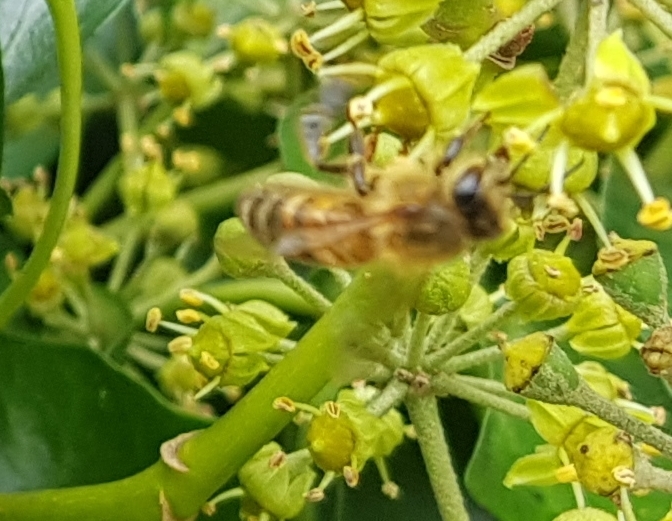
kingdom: Animalia
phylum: Arthropoda
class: Insecta
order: Hymenoptera
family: Apidae
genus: Apis
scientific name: Apis mellifera
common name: Honey bee
